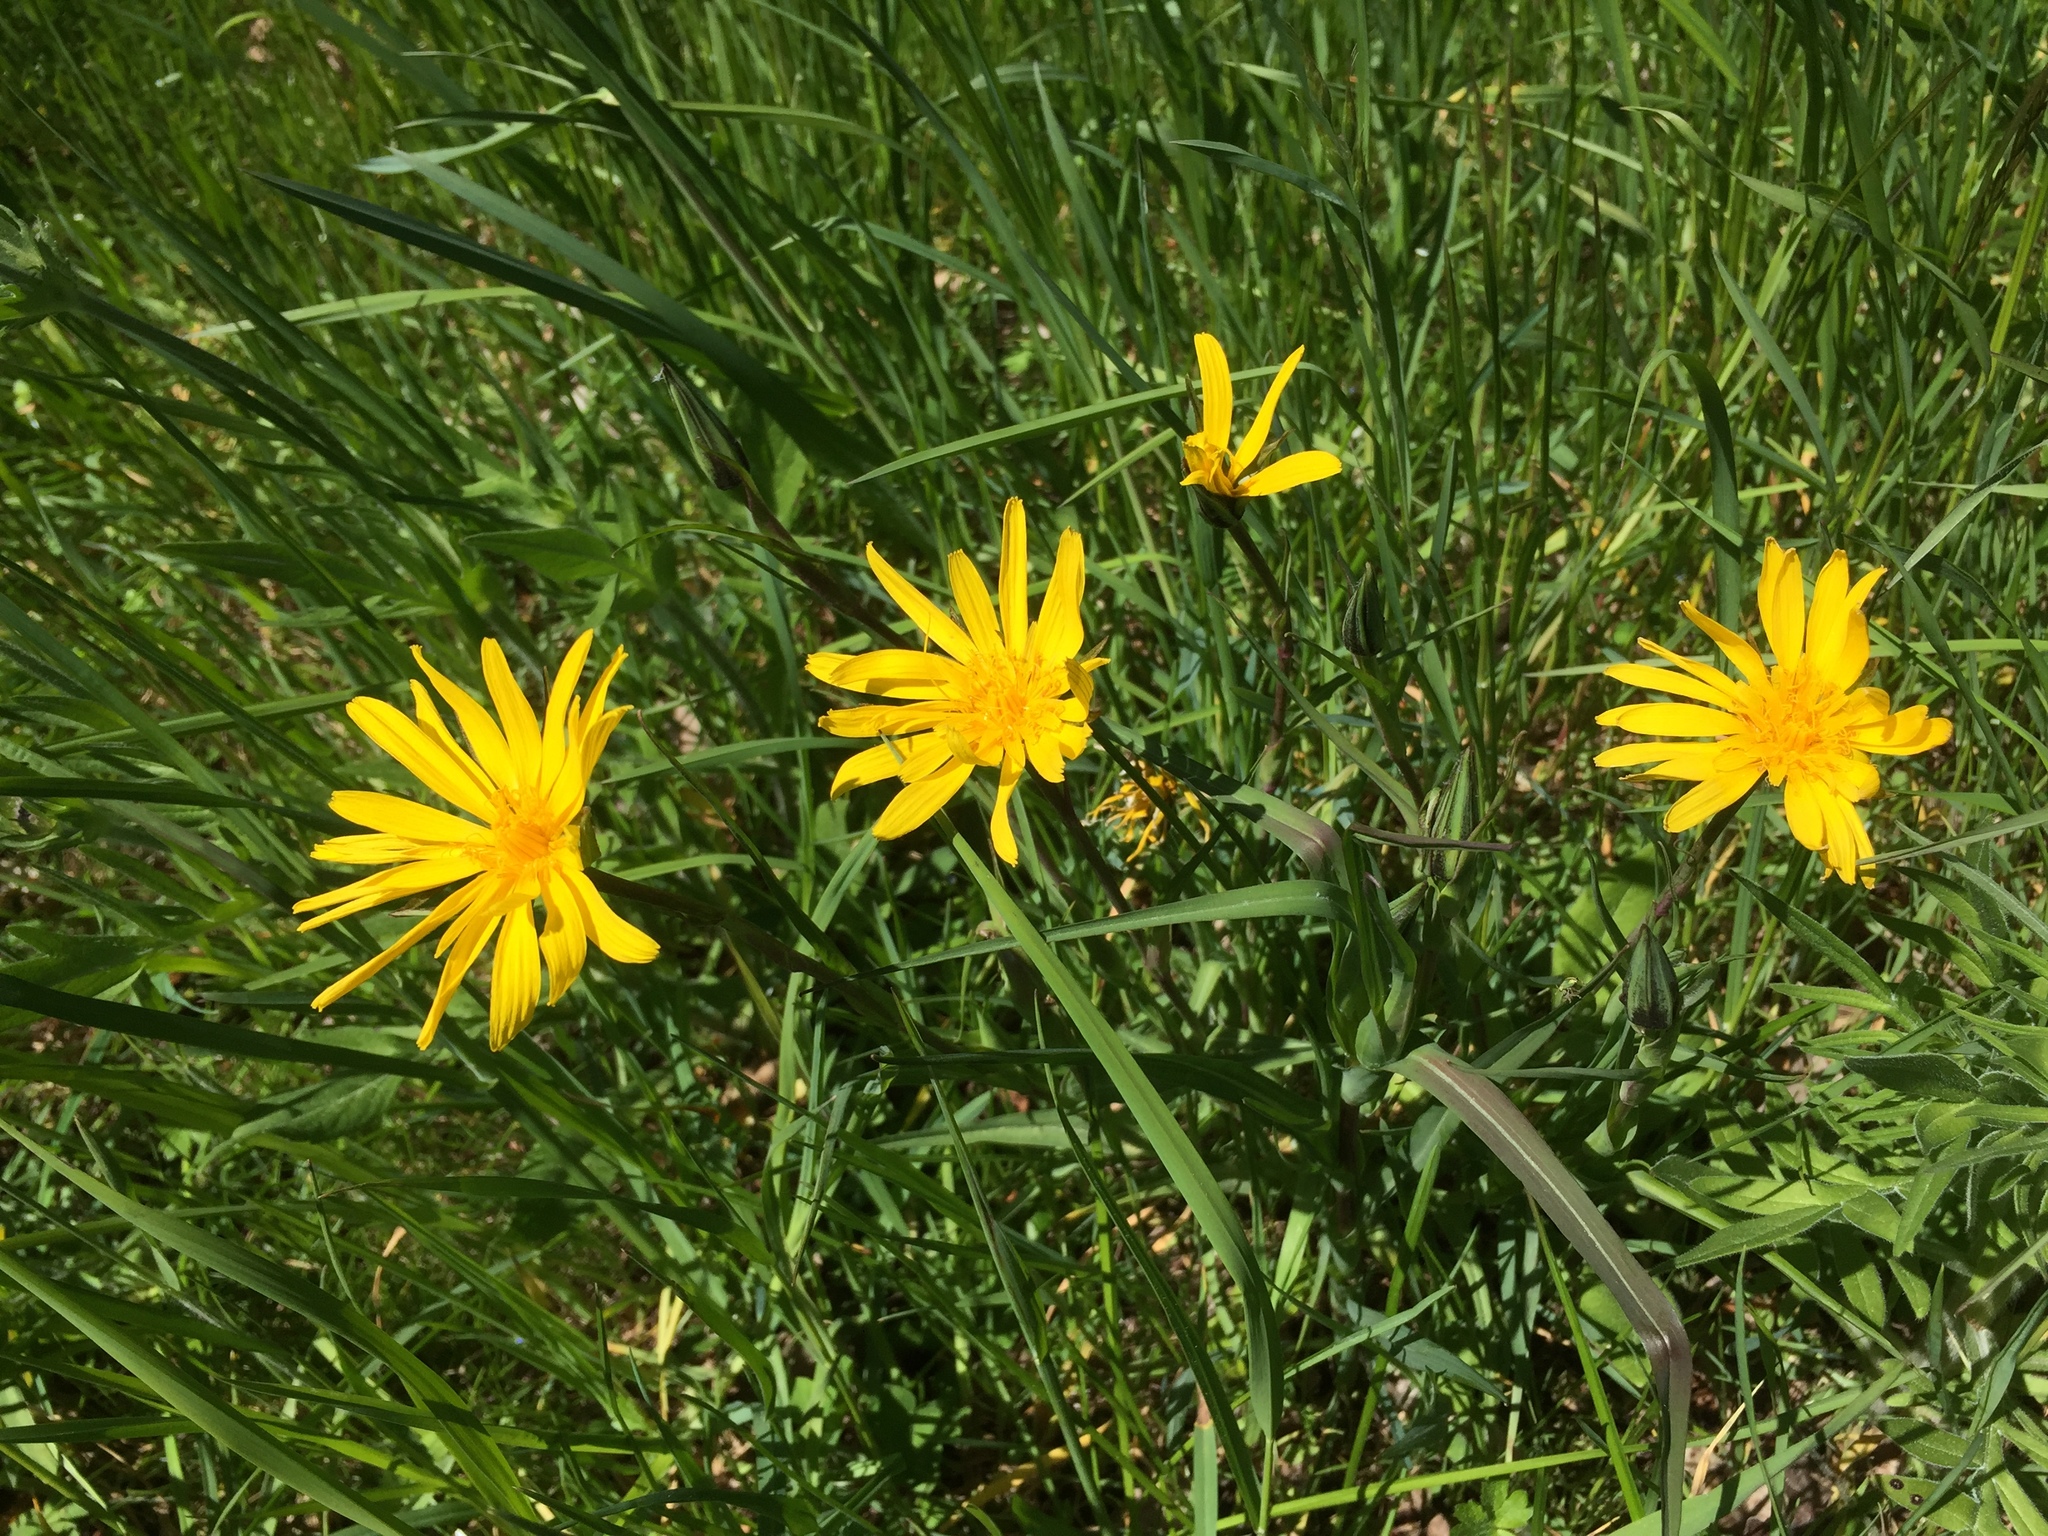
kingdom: Plantae
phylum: Tracheophyta
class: Magnoliopsida
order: Asterales
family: Asteraceae
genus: Tragopogon
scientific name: Tragopogon pratensis
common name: Goat's-beard
